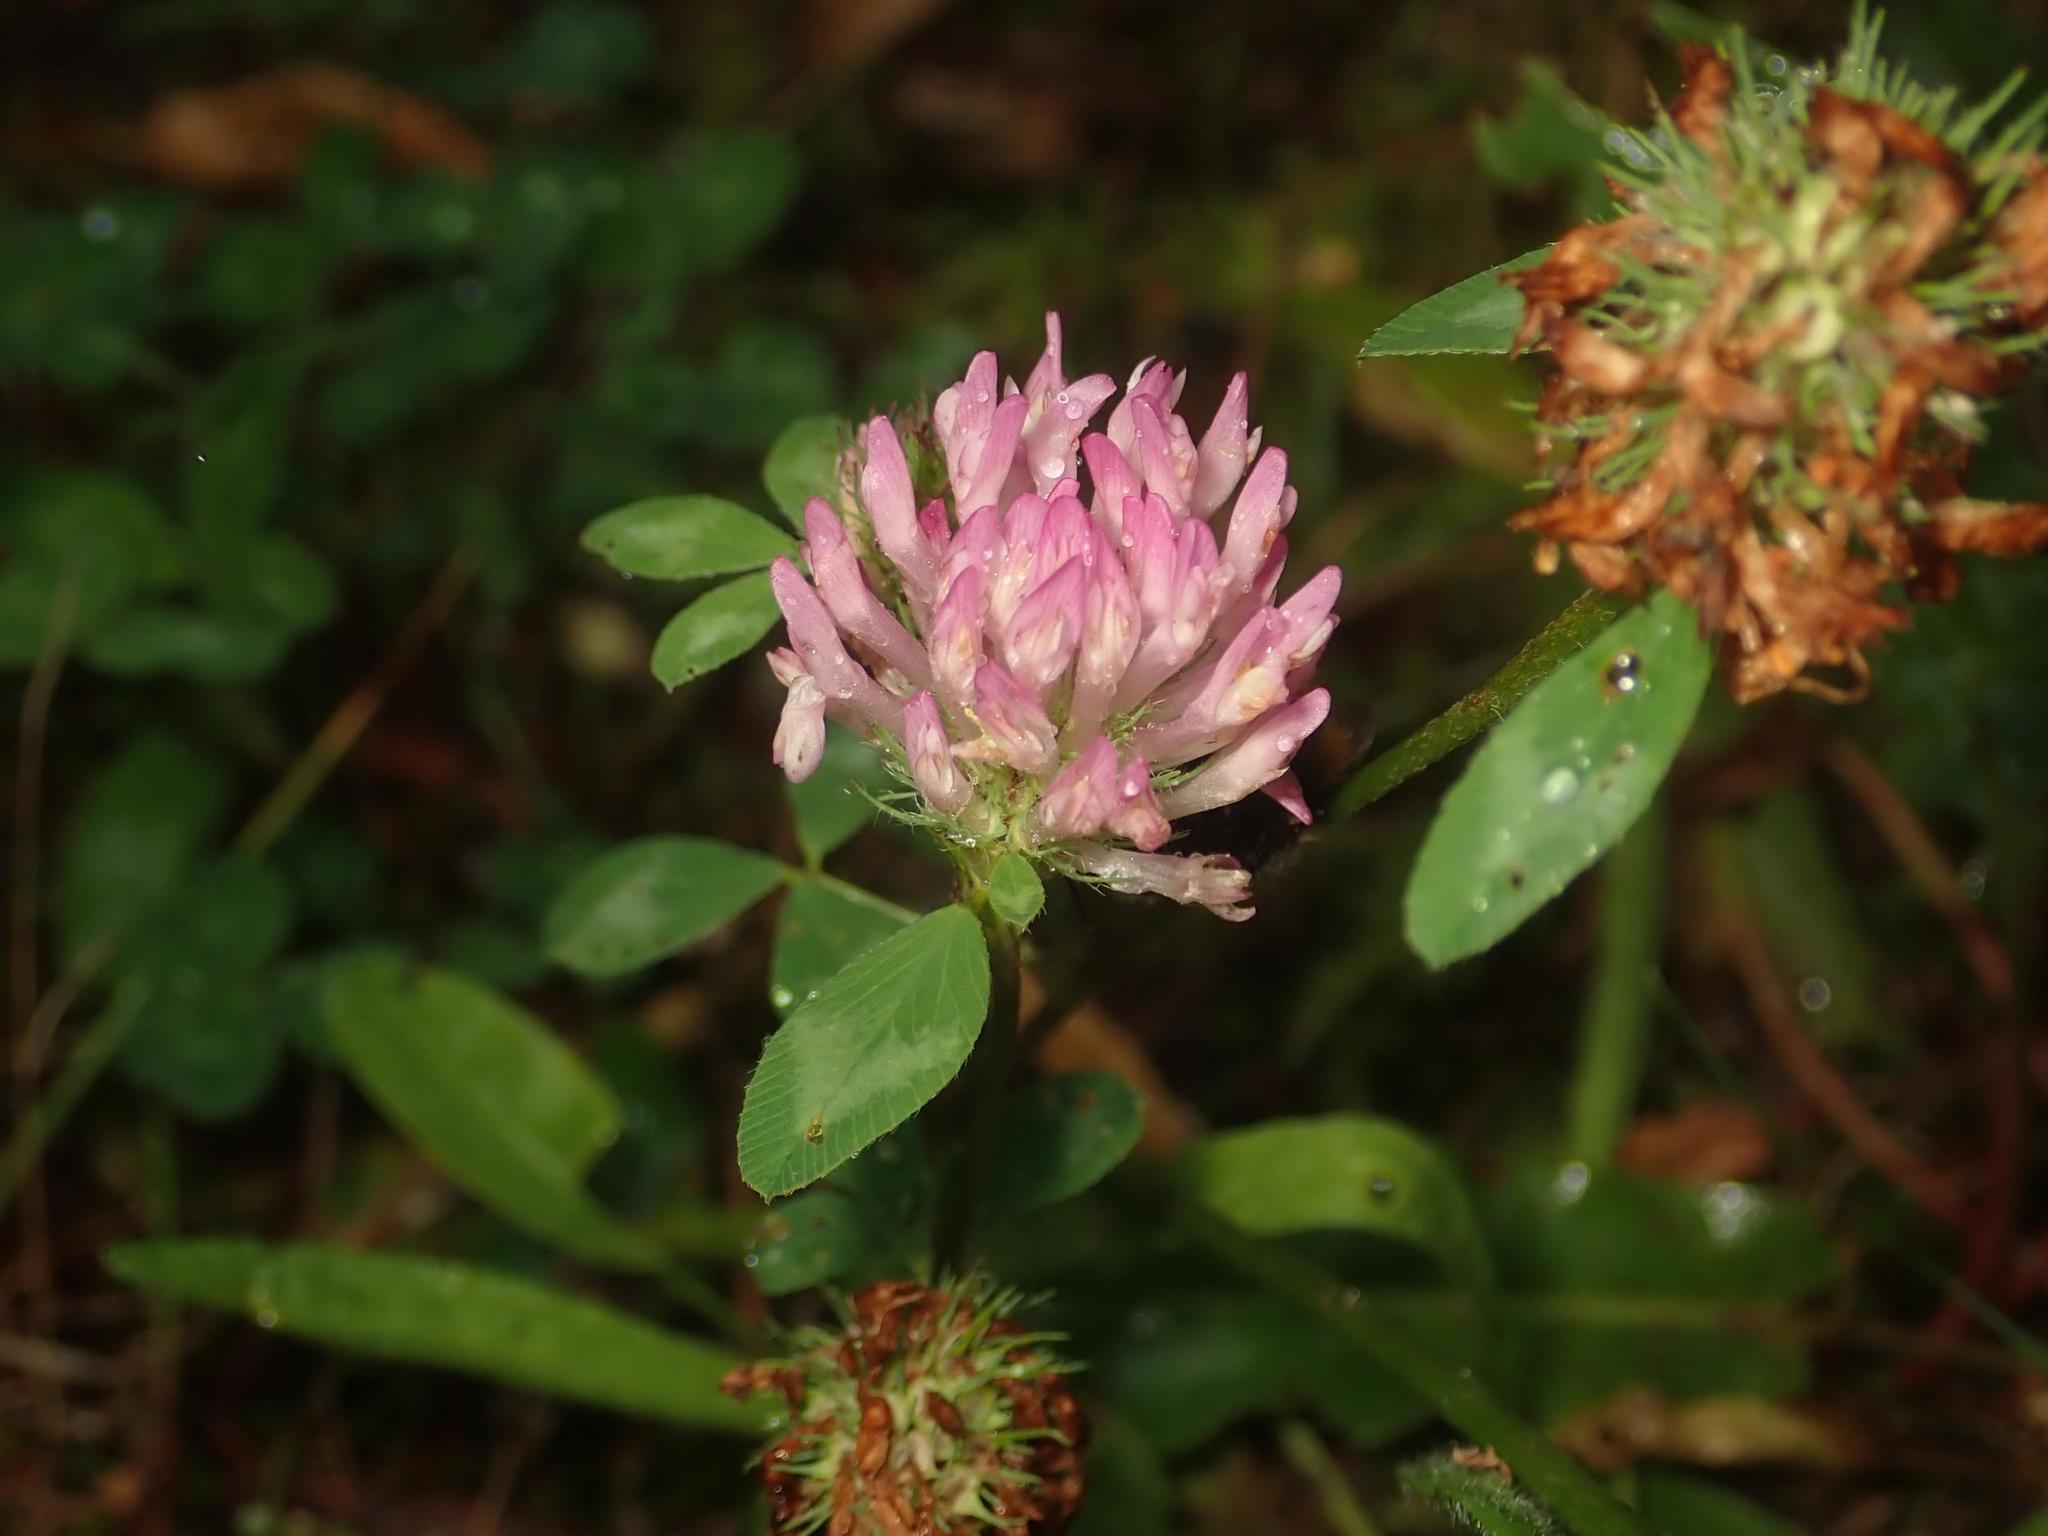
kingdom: Plantae
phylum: Tracheophyta
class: Magnoliopsida
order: Fabales
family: Fabaceae
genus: Trifolium
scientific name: Trifolium pratense
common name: Red clover
